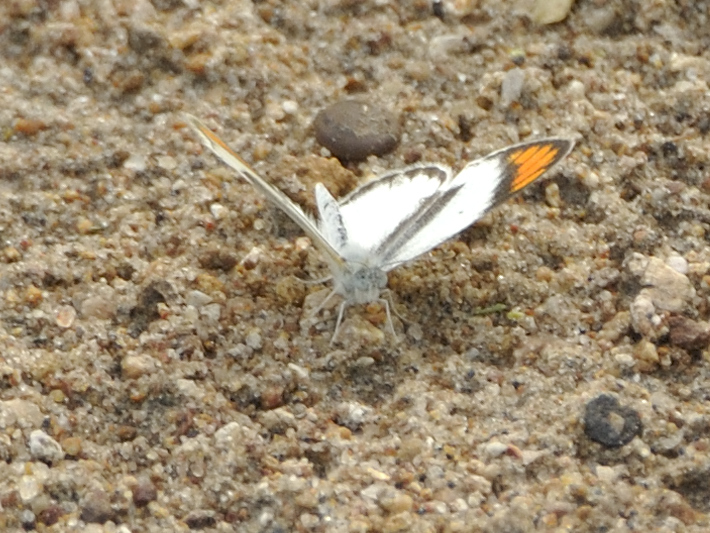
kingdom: Animalia
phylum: Arthropoda
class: Insecta
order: Lepidoptera
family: Pieridae
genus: Colotis
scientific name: Colotis euippe
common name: Round-winged orange tip
